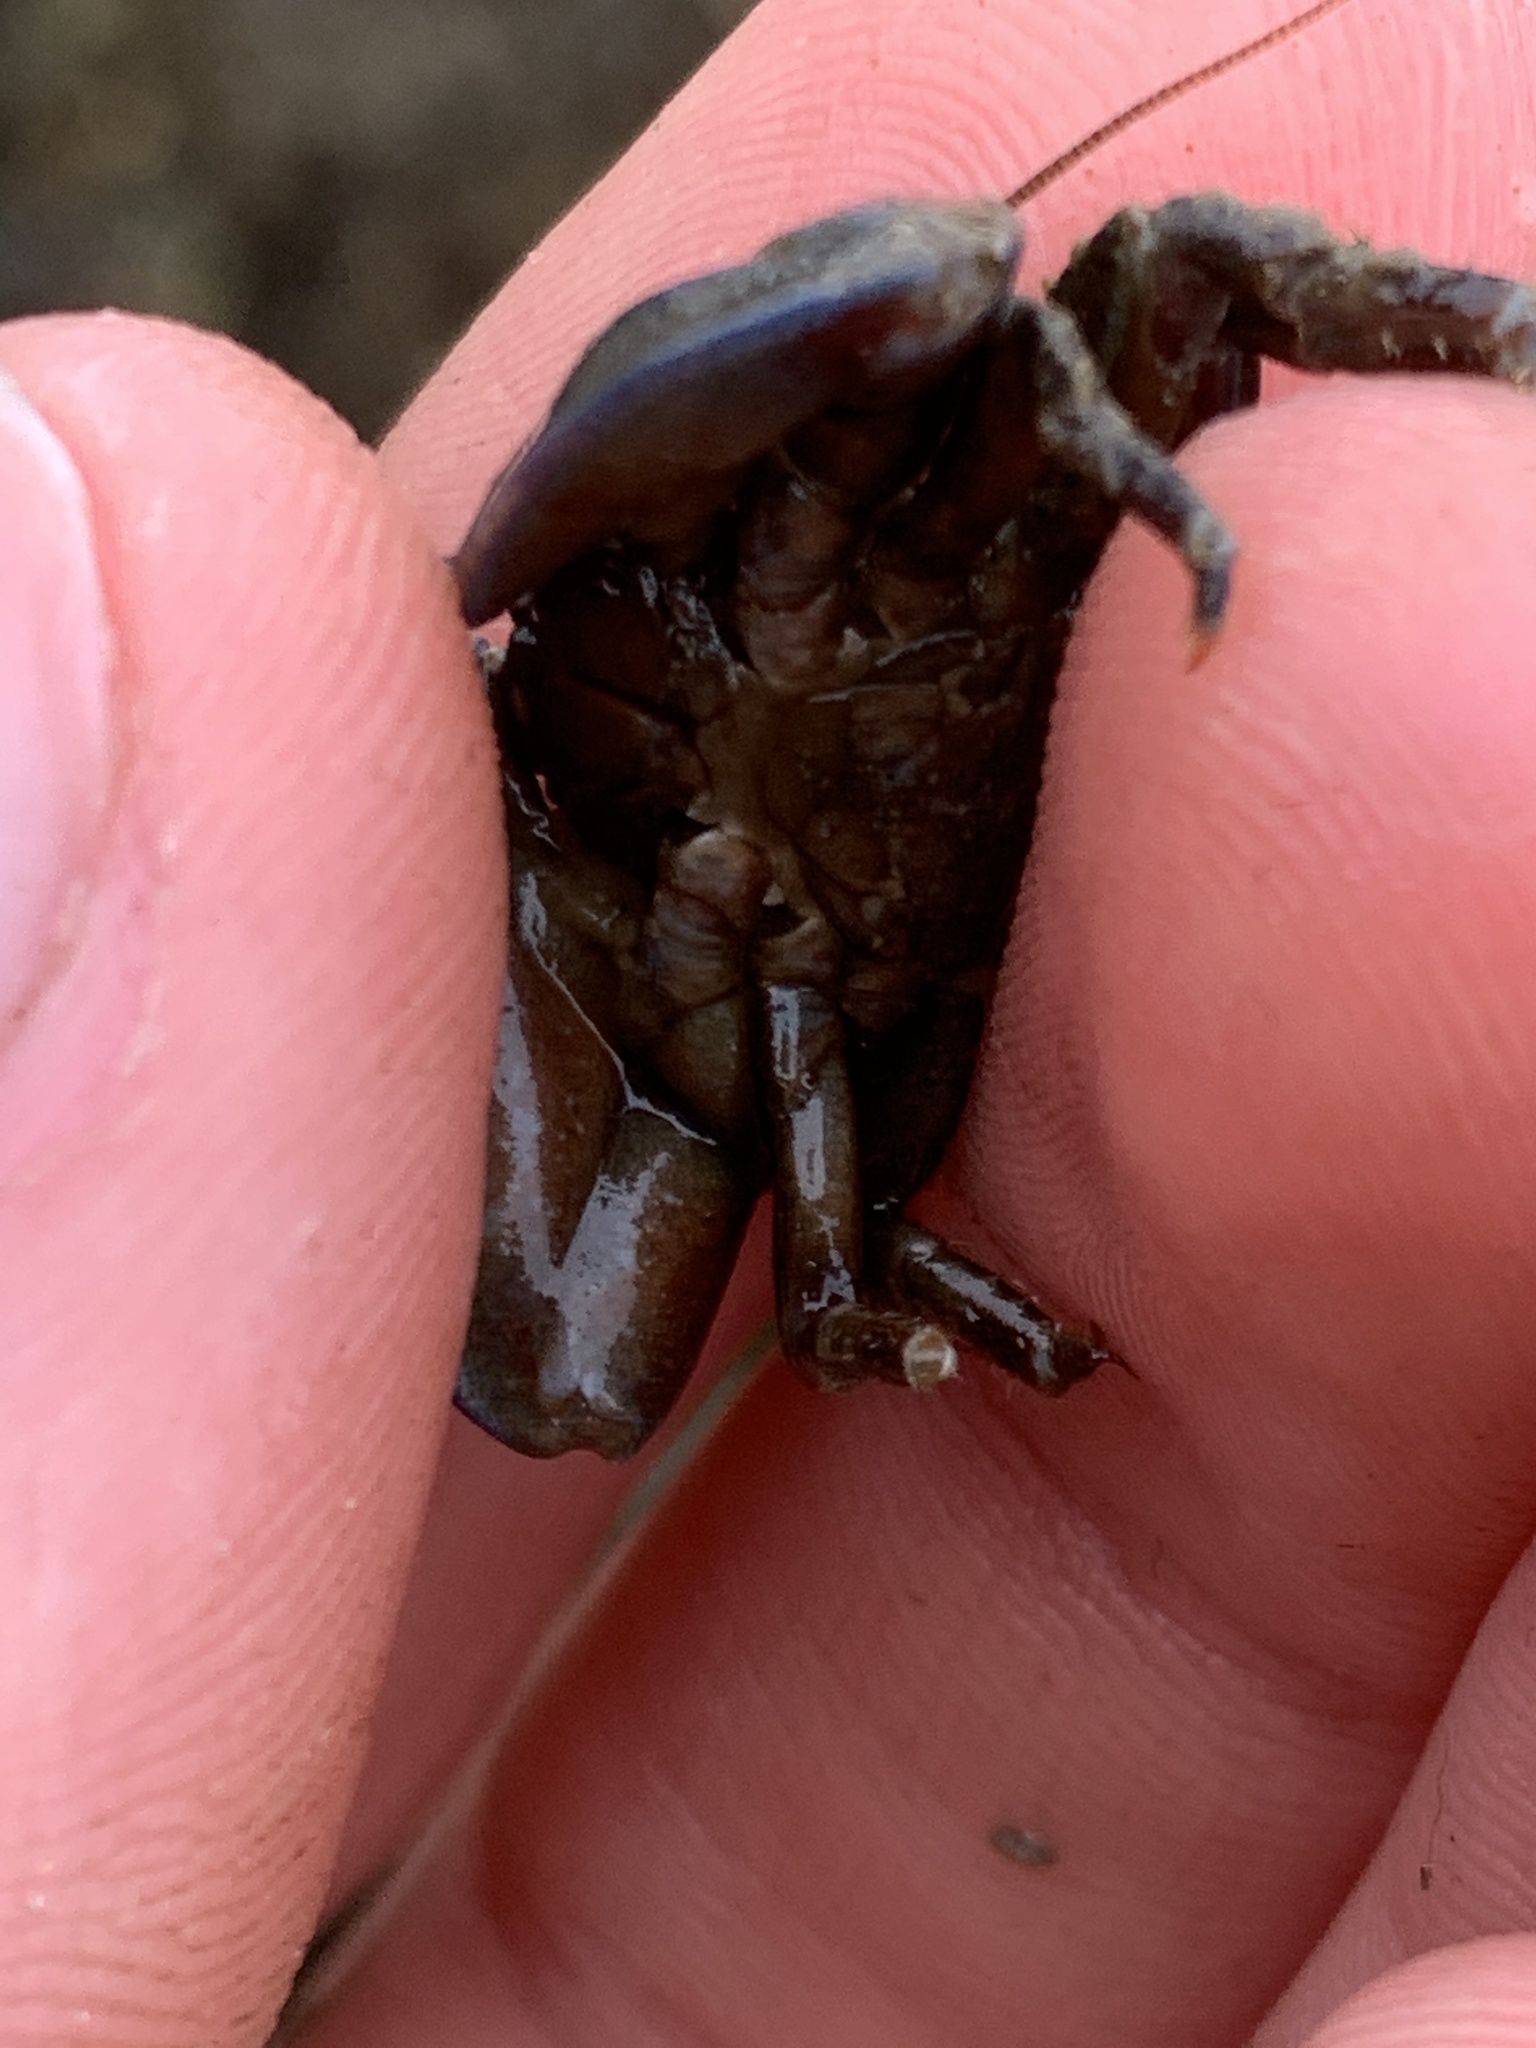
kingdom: Animalia
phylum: Arthropoda
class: Malacostraca
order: Decapoda
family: Porcellanidae
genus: Petrolisthes
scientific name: Petrolisthes cinctipes
